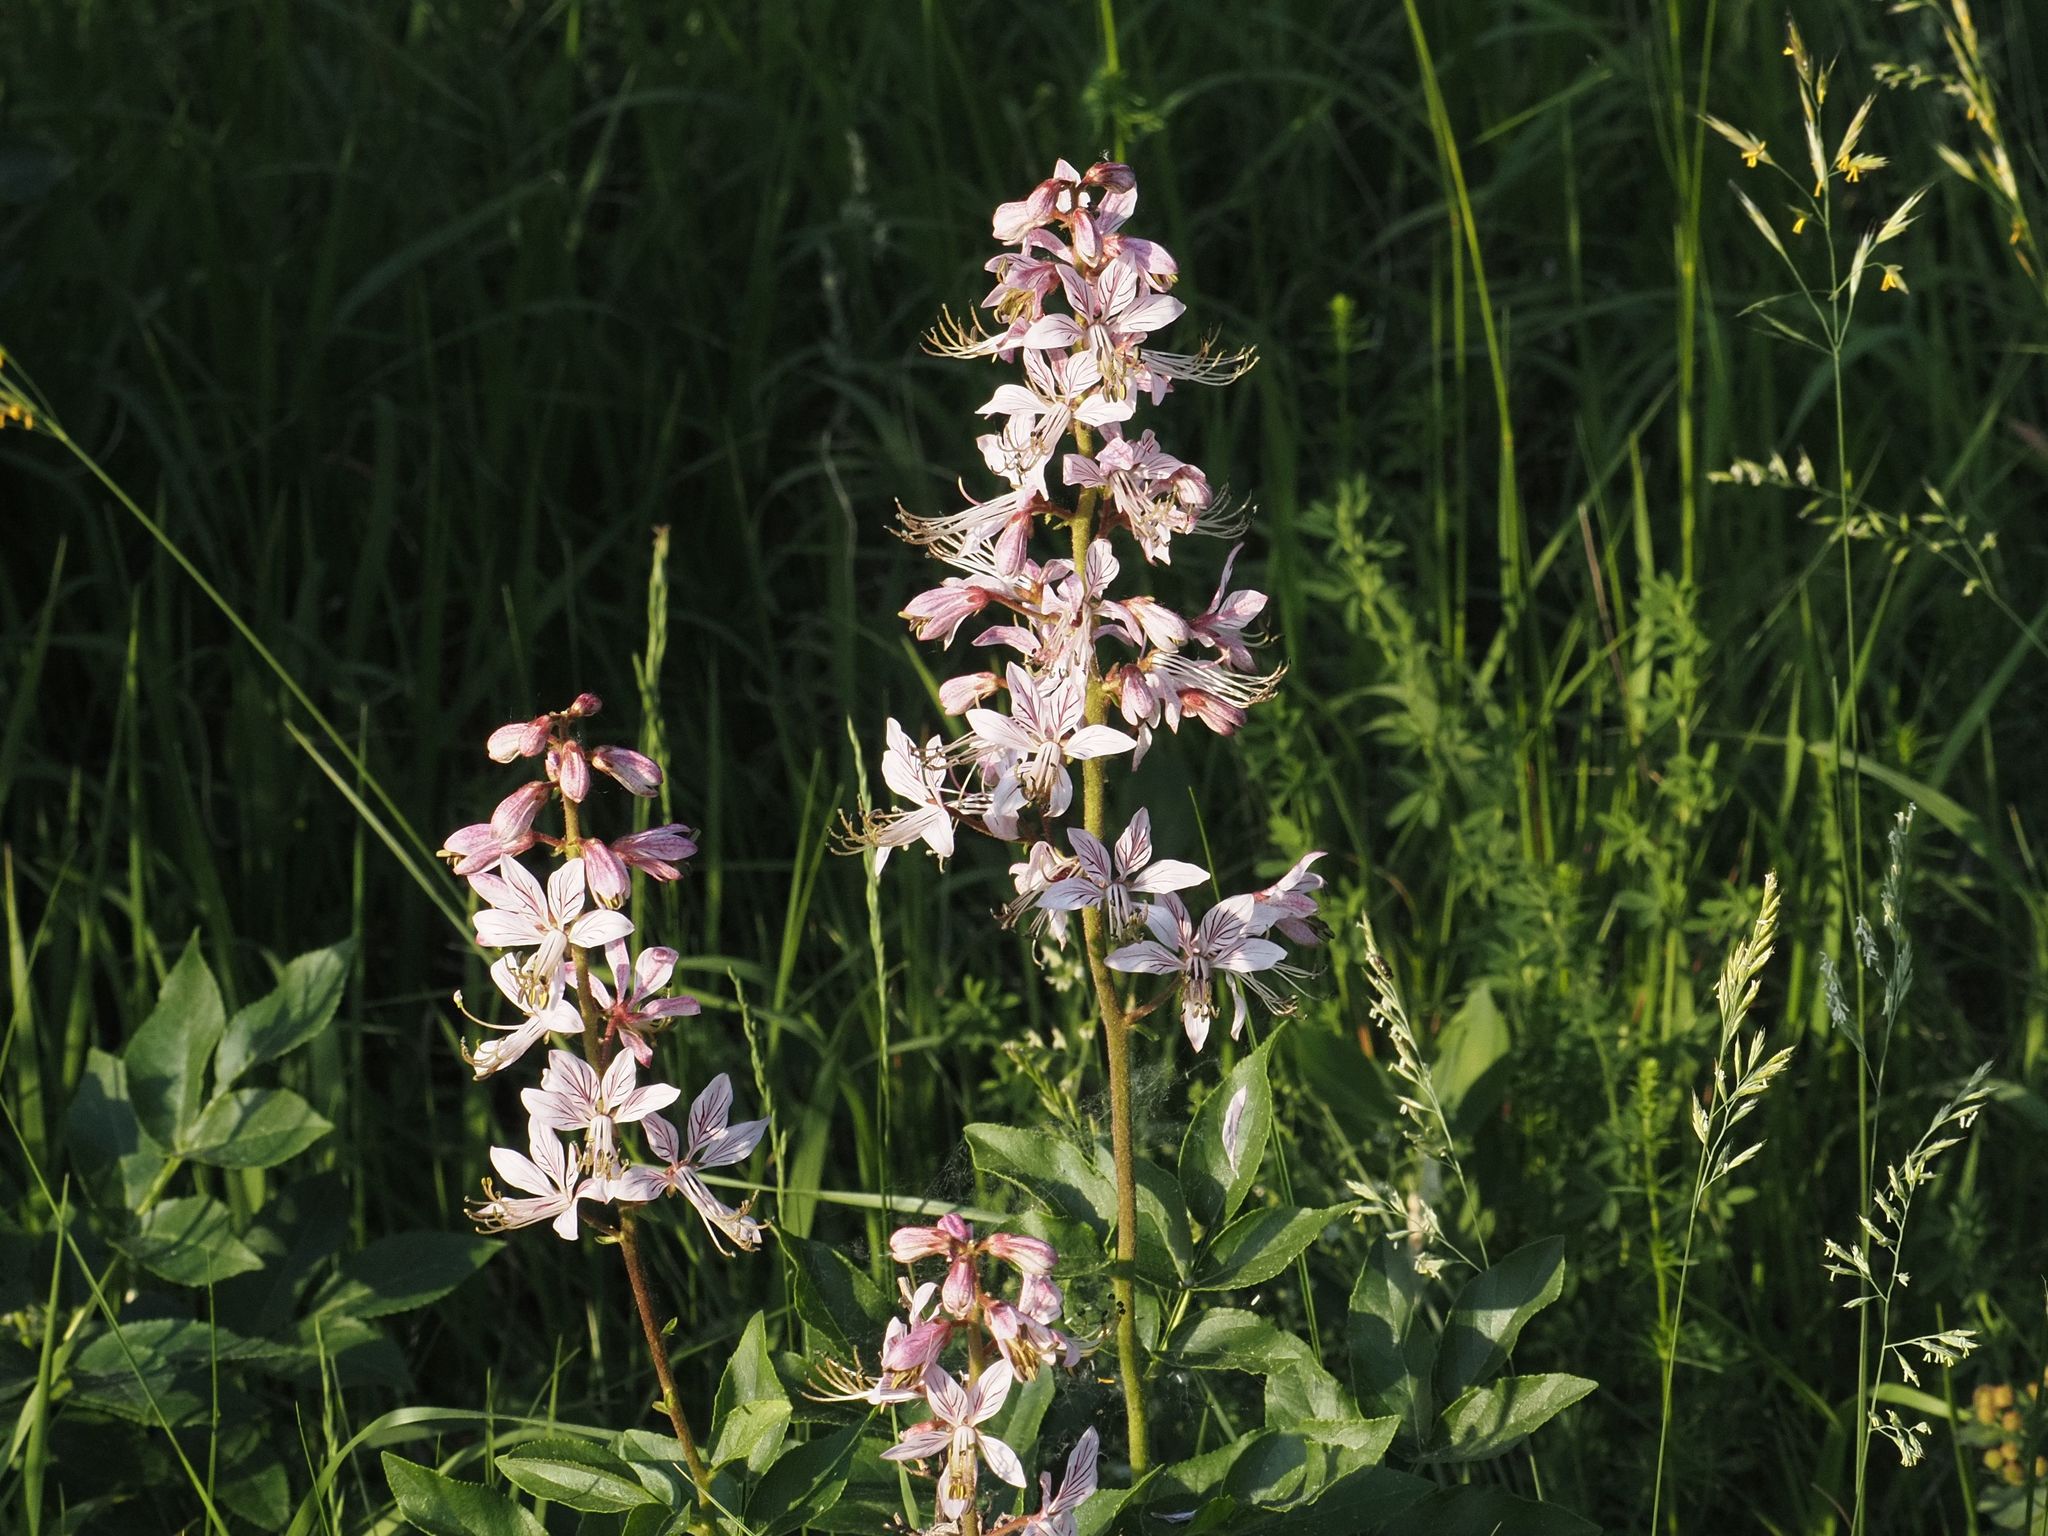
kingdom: Plantae
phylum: Tracheophyta
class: Magnoliopsida
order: Sapindales
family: Rutaceae
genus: Dictamnus
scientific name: Dictamnus albus
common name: Gasplant
